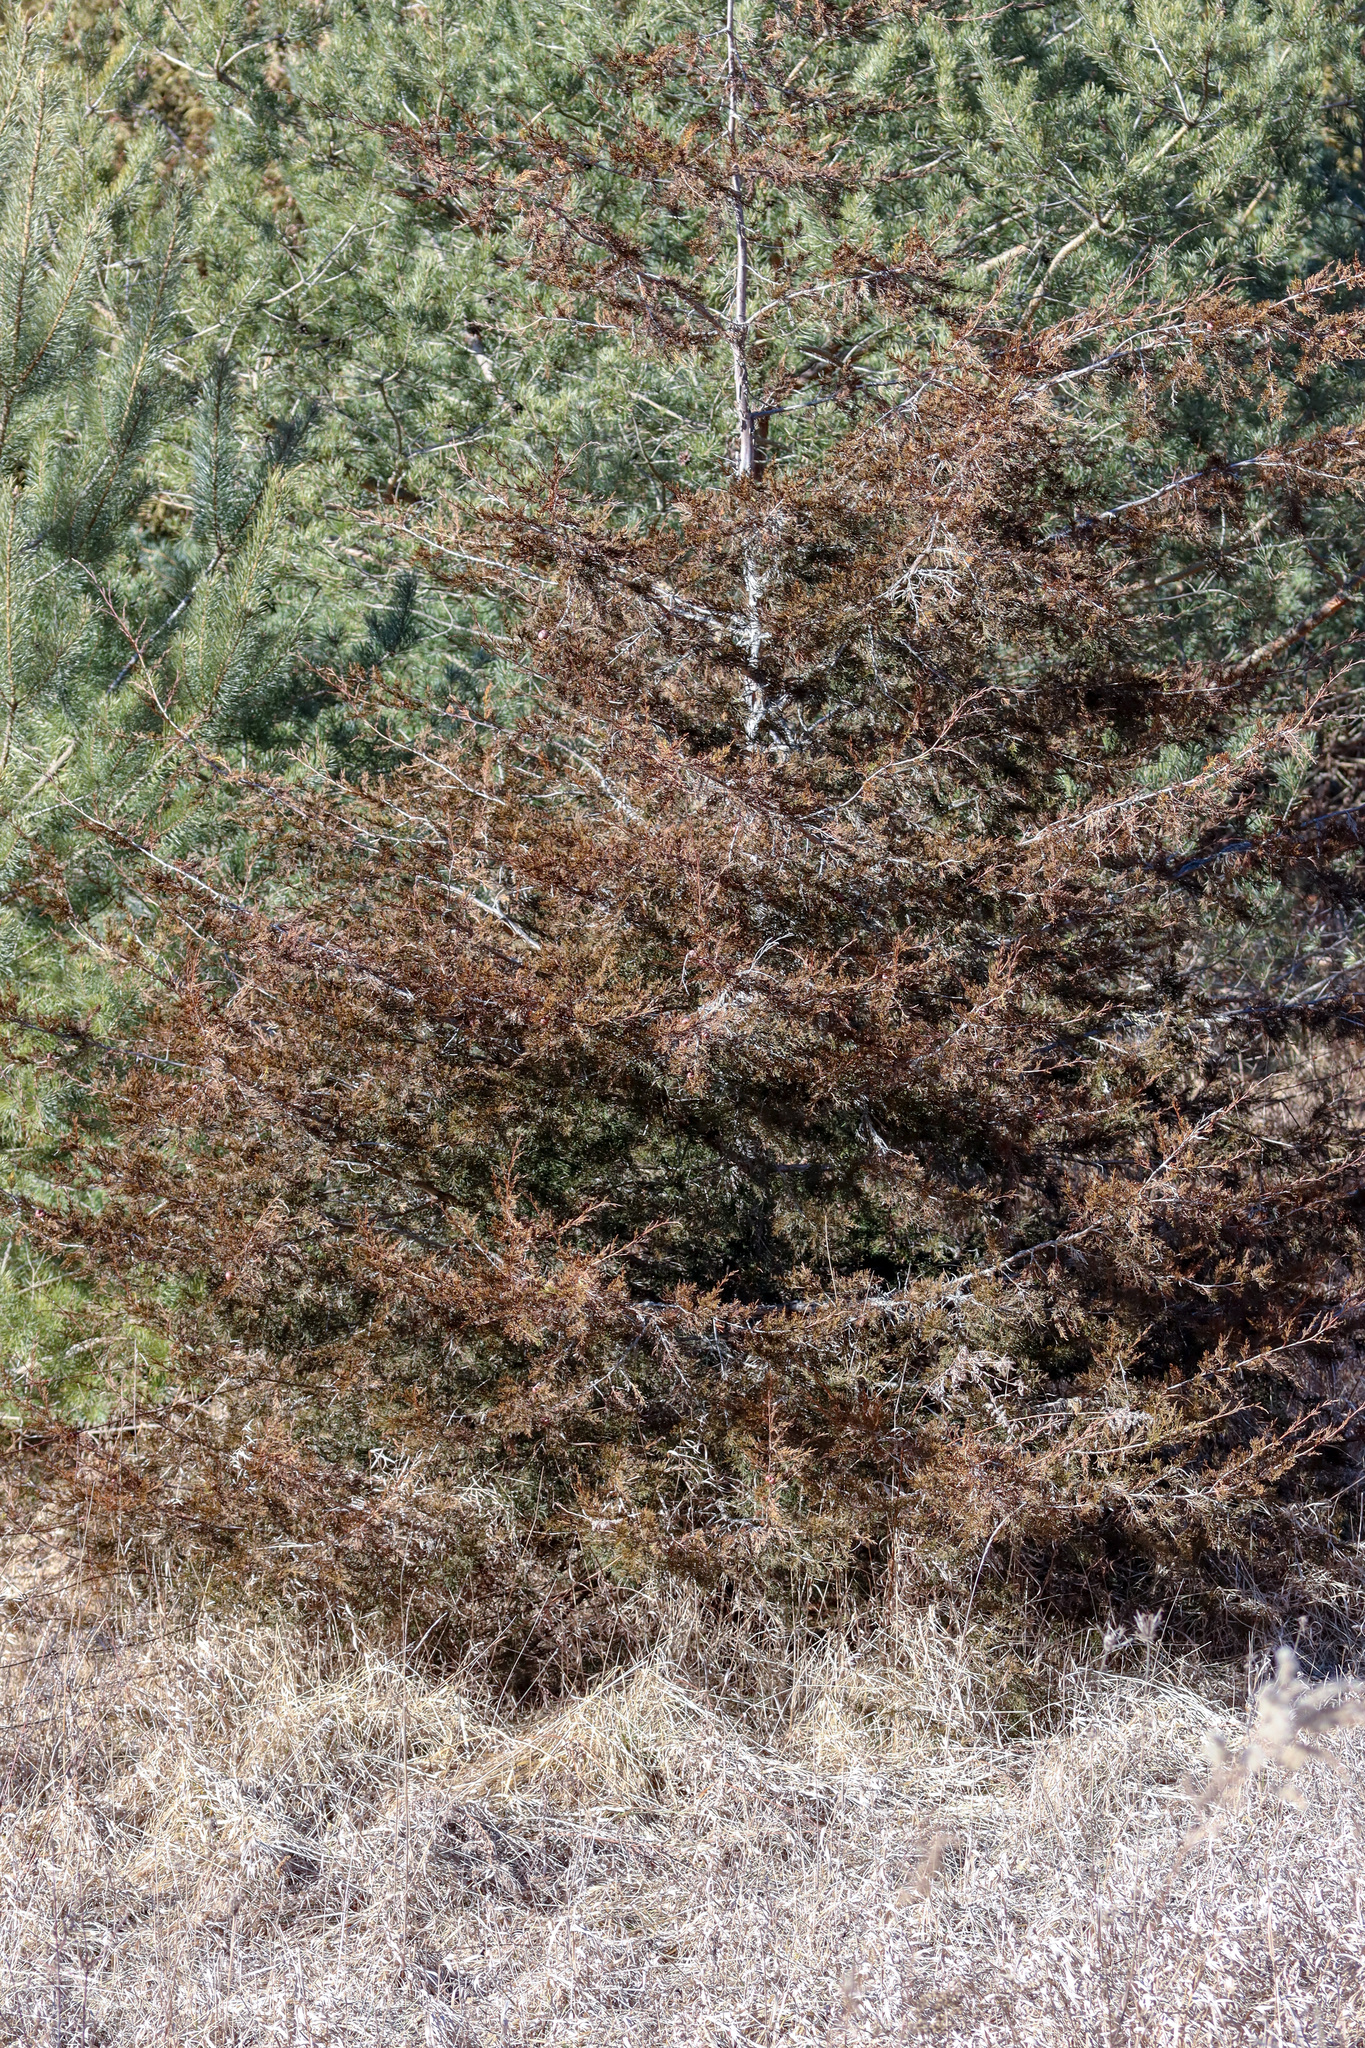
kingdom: Plantae
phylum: Tracheophyta
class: Pinopsida
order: Pinales
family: Cupressaceae
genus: Juniperus
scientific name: Juniperus virginiana
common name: Red juniper
